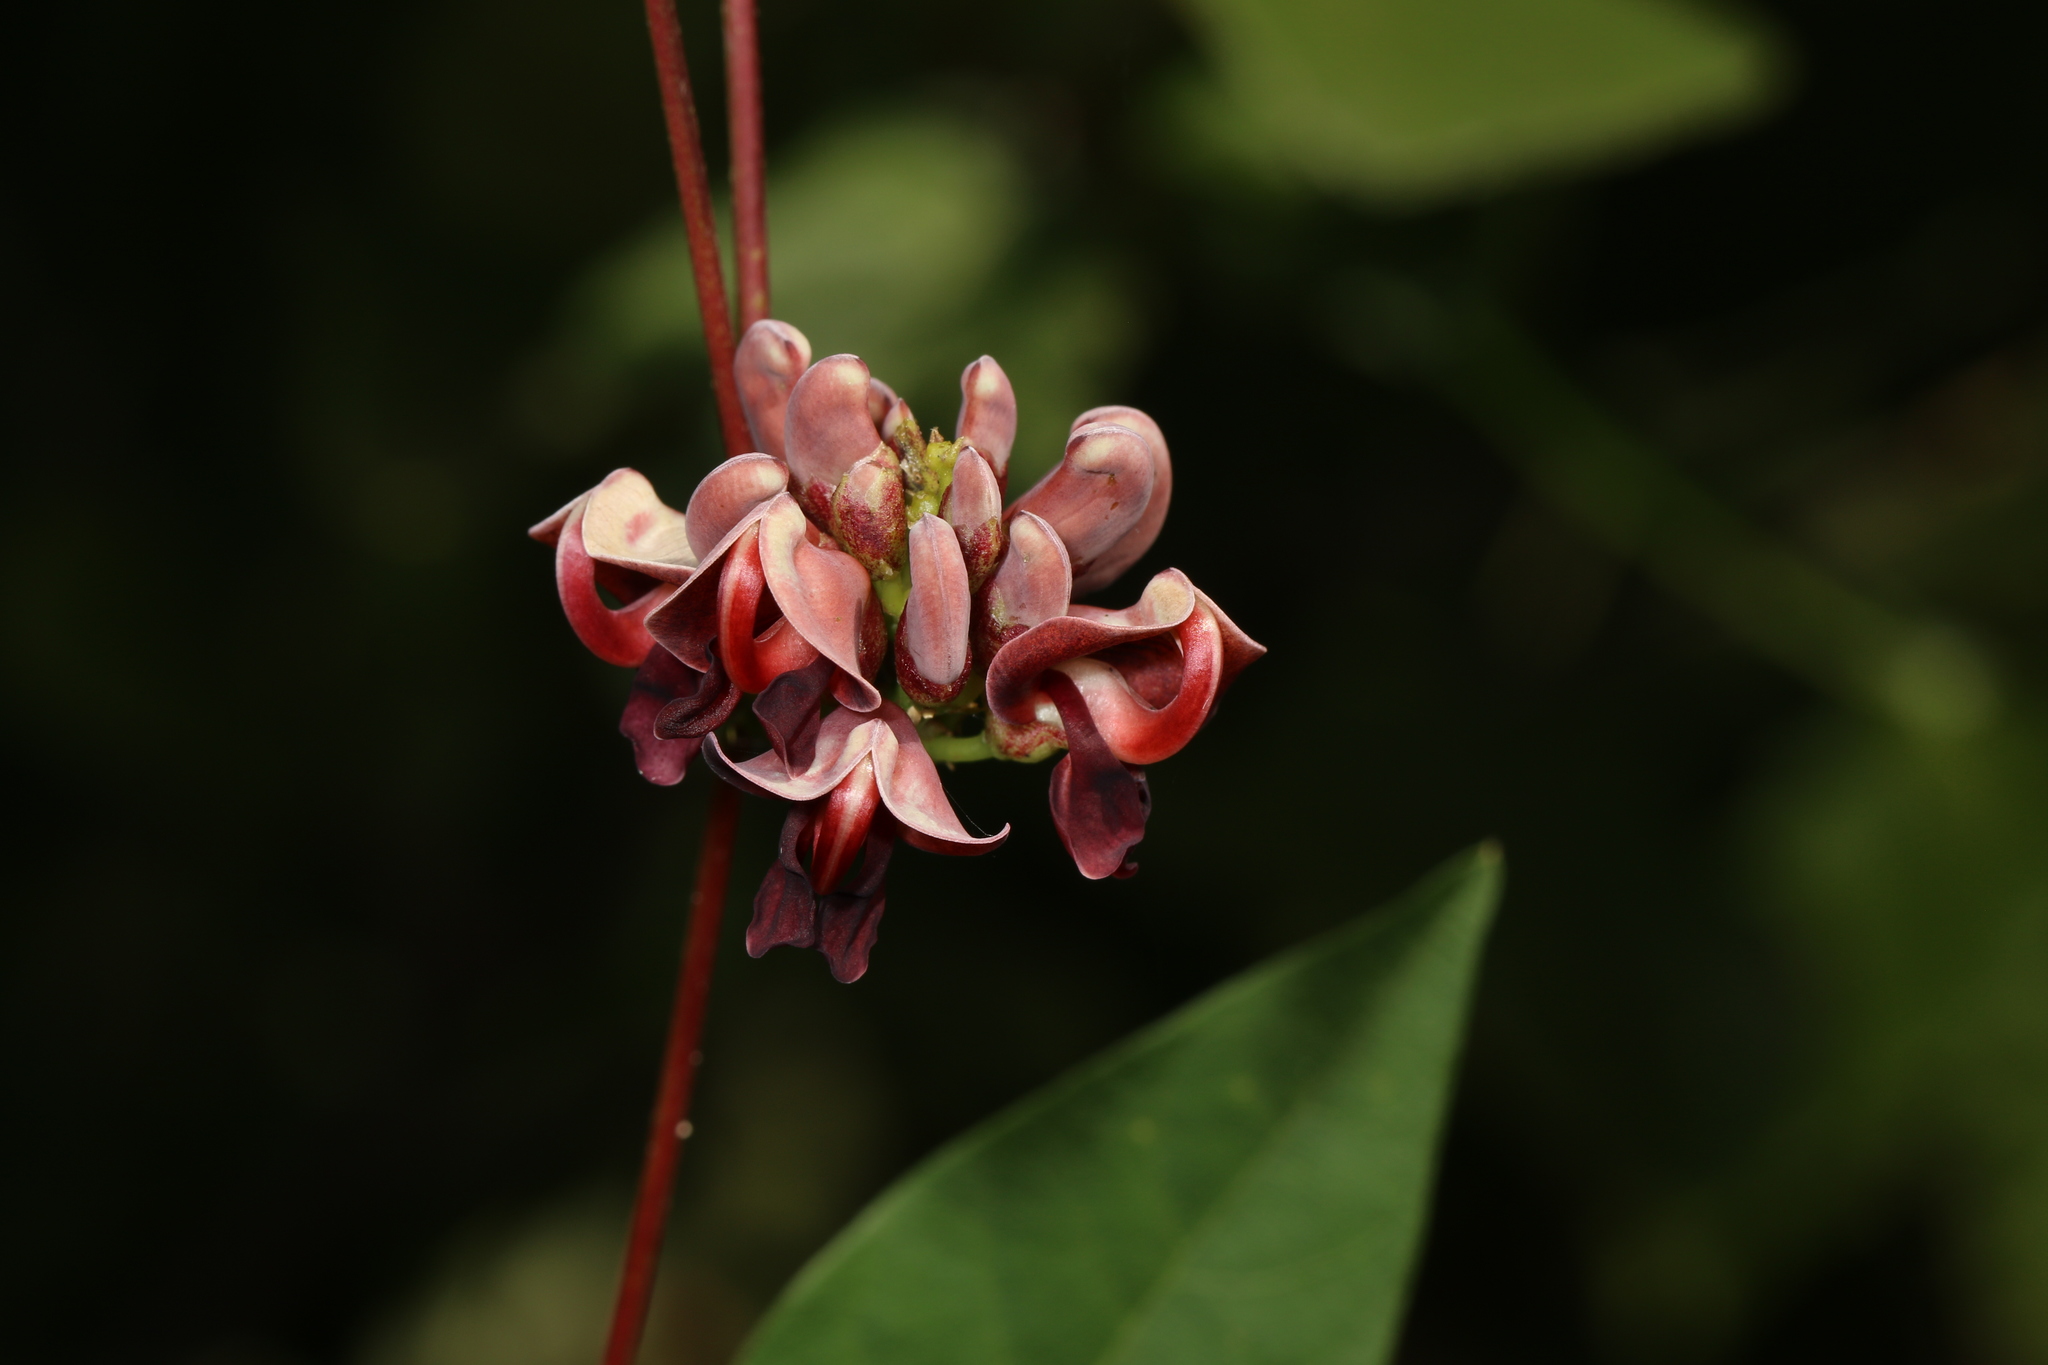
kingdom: Plantae
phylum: Tracheophyta
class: Magnoliopsida
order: Fabales
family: Fabaceae
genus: Apios
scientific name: Apios americana
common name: American potato-bean
